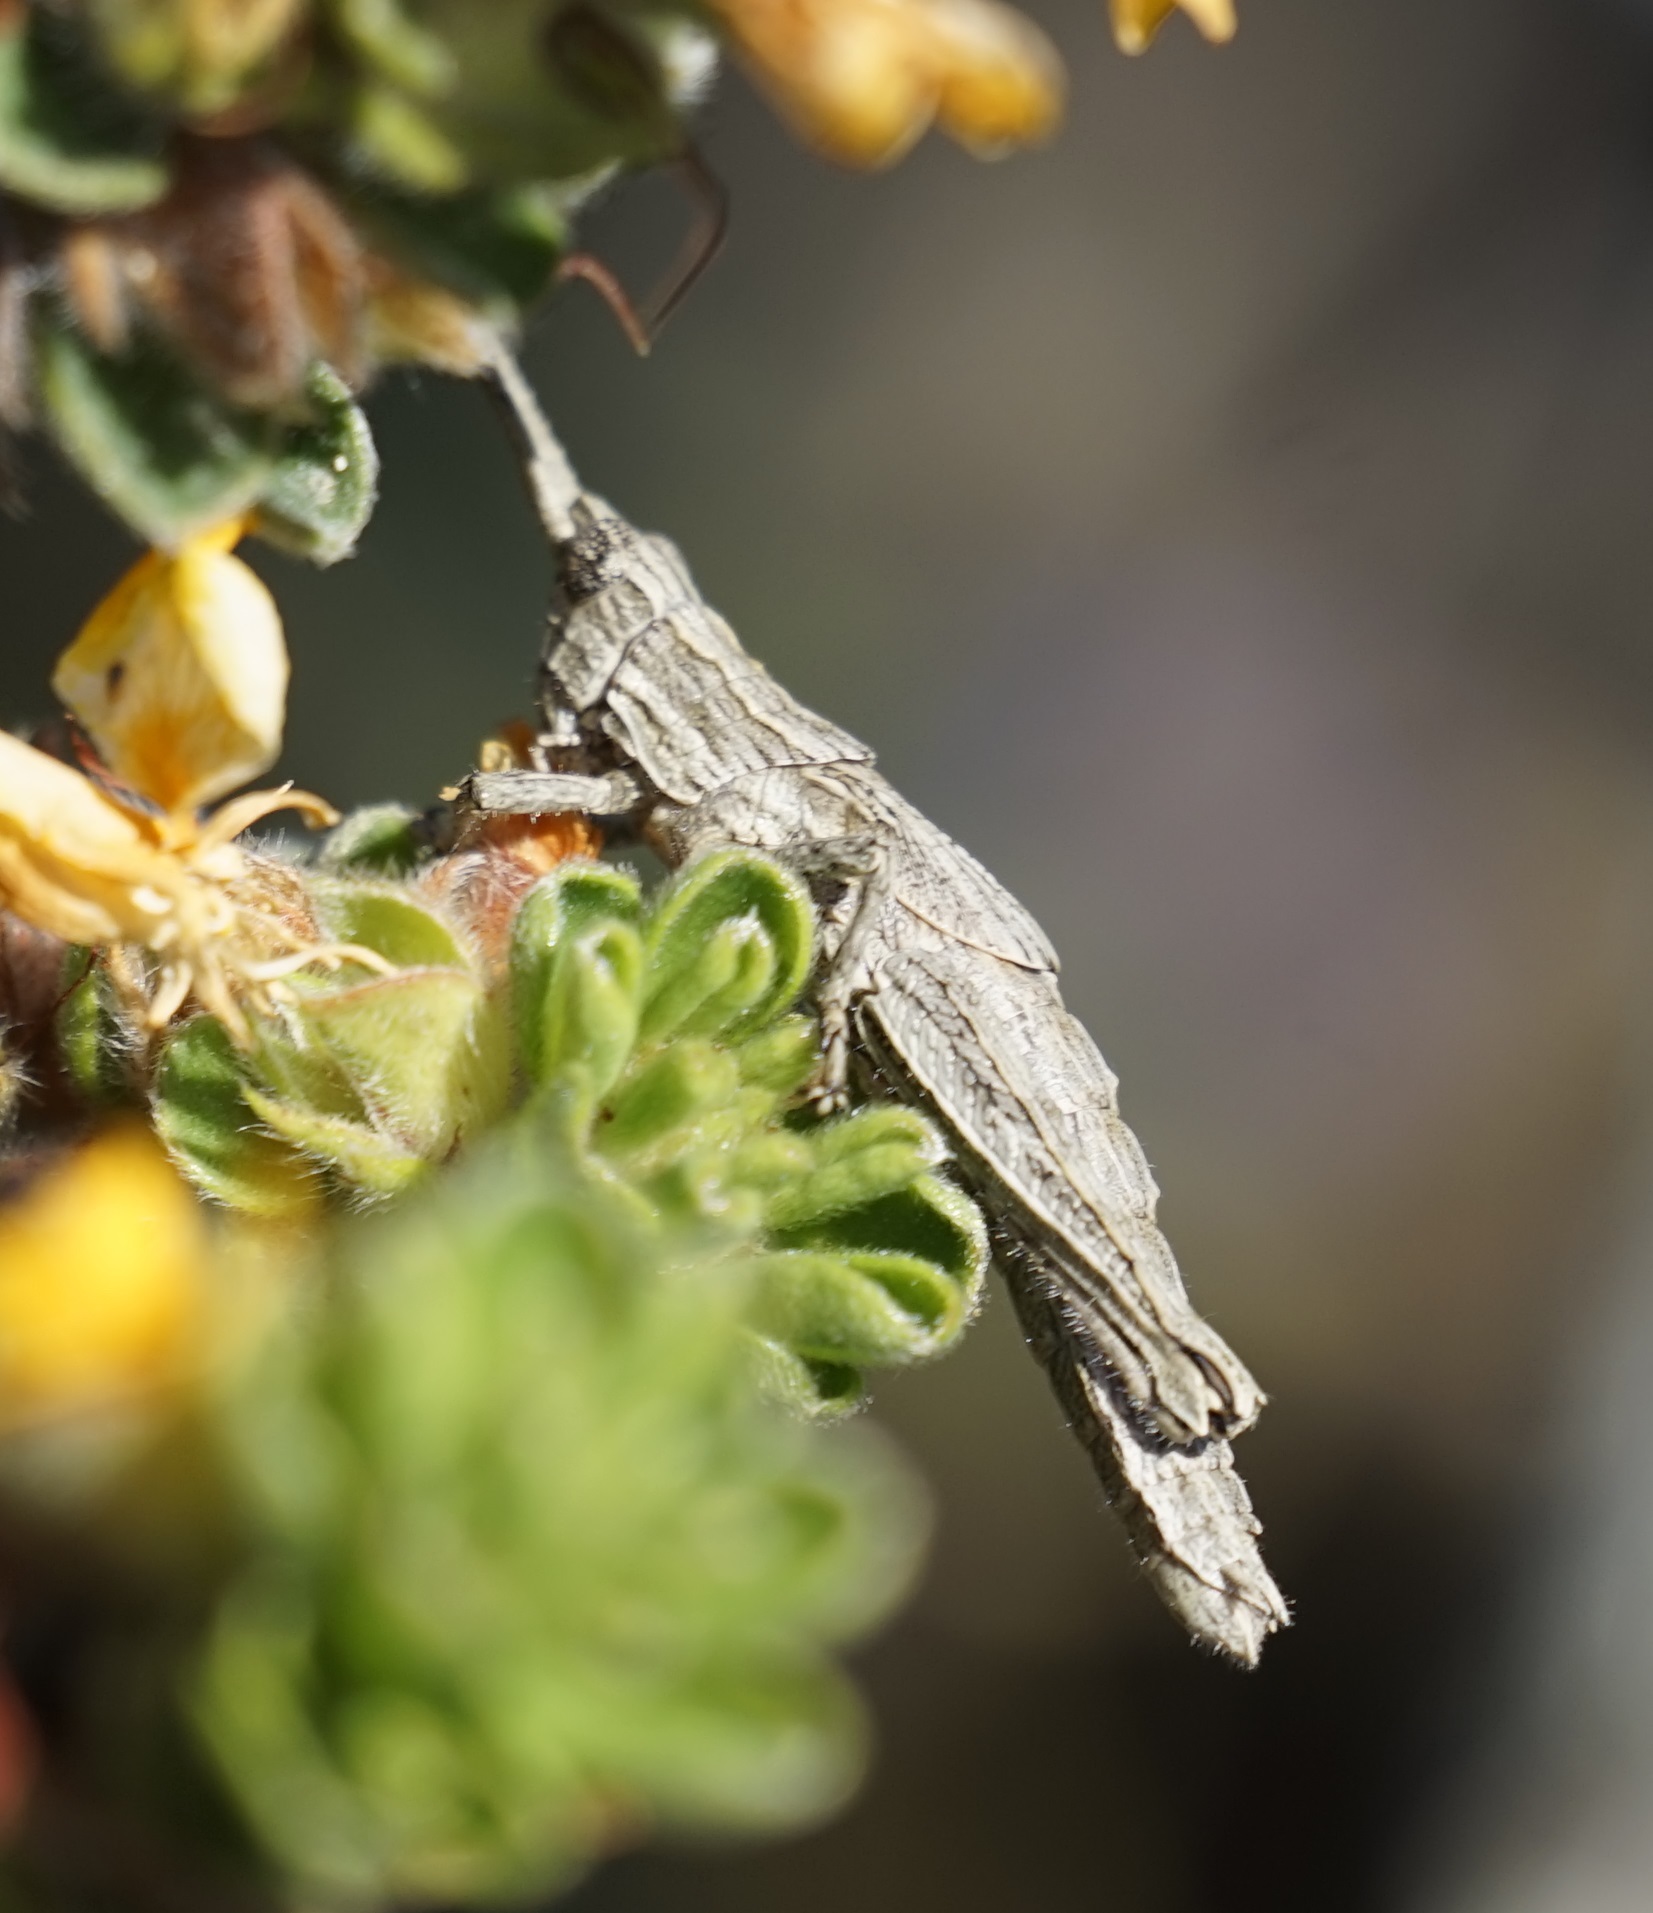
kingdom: Animalia
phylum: Arthropoda
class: Insecta
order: Orthoptera
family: Acrididae
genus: Coryphistes
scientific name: Coryphistes ruricola
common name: Bark-mimicking grasshopper
